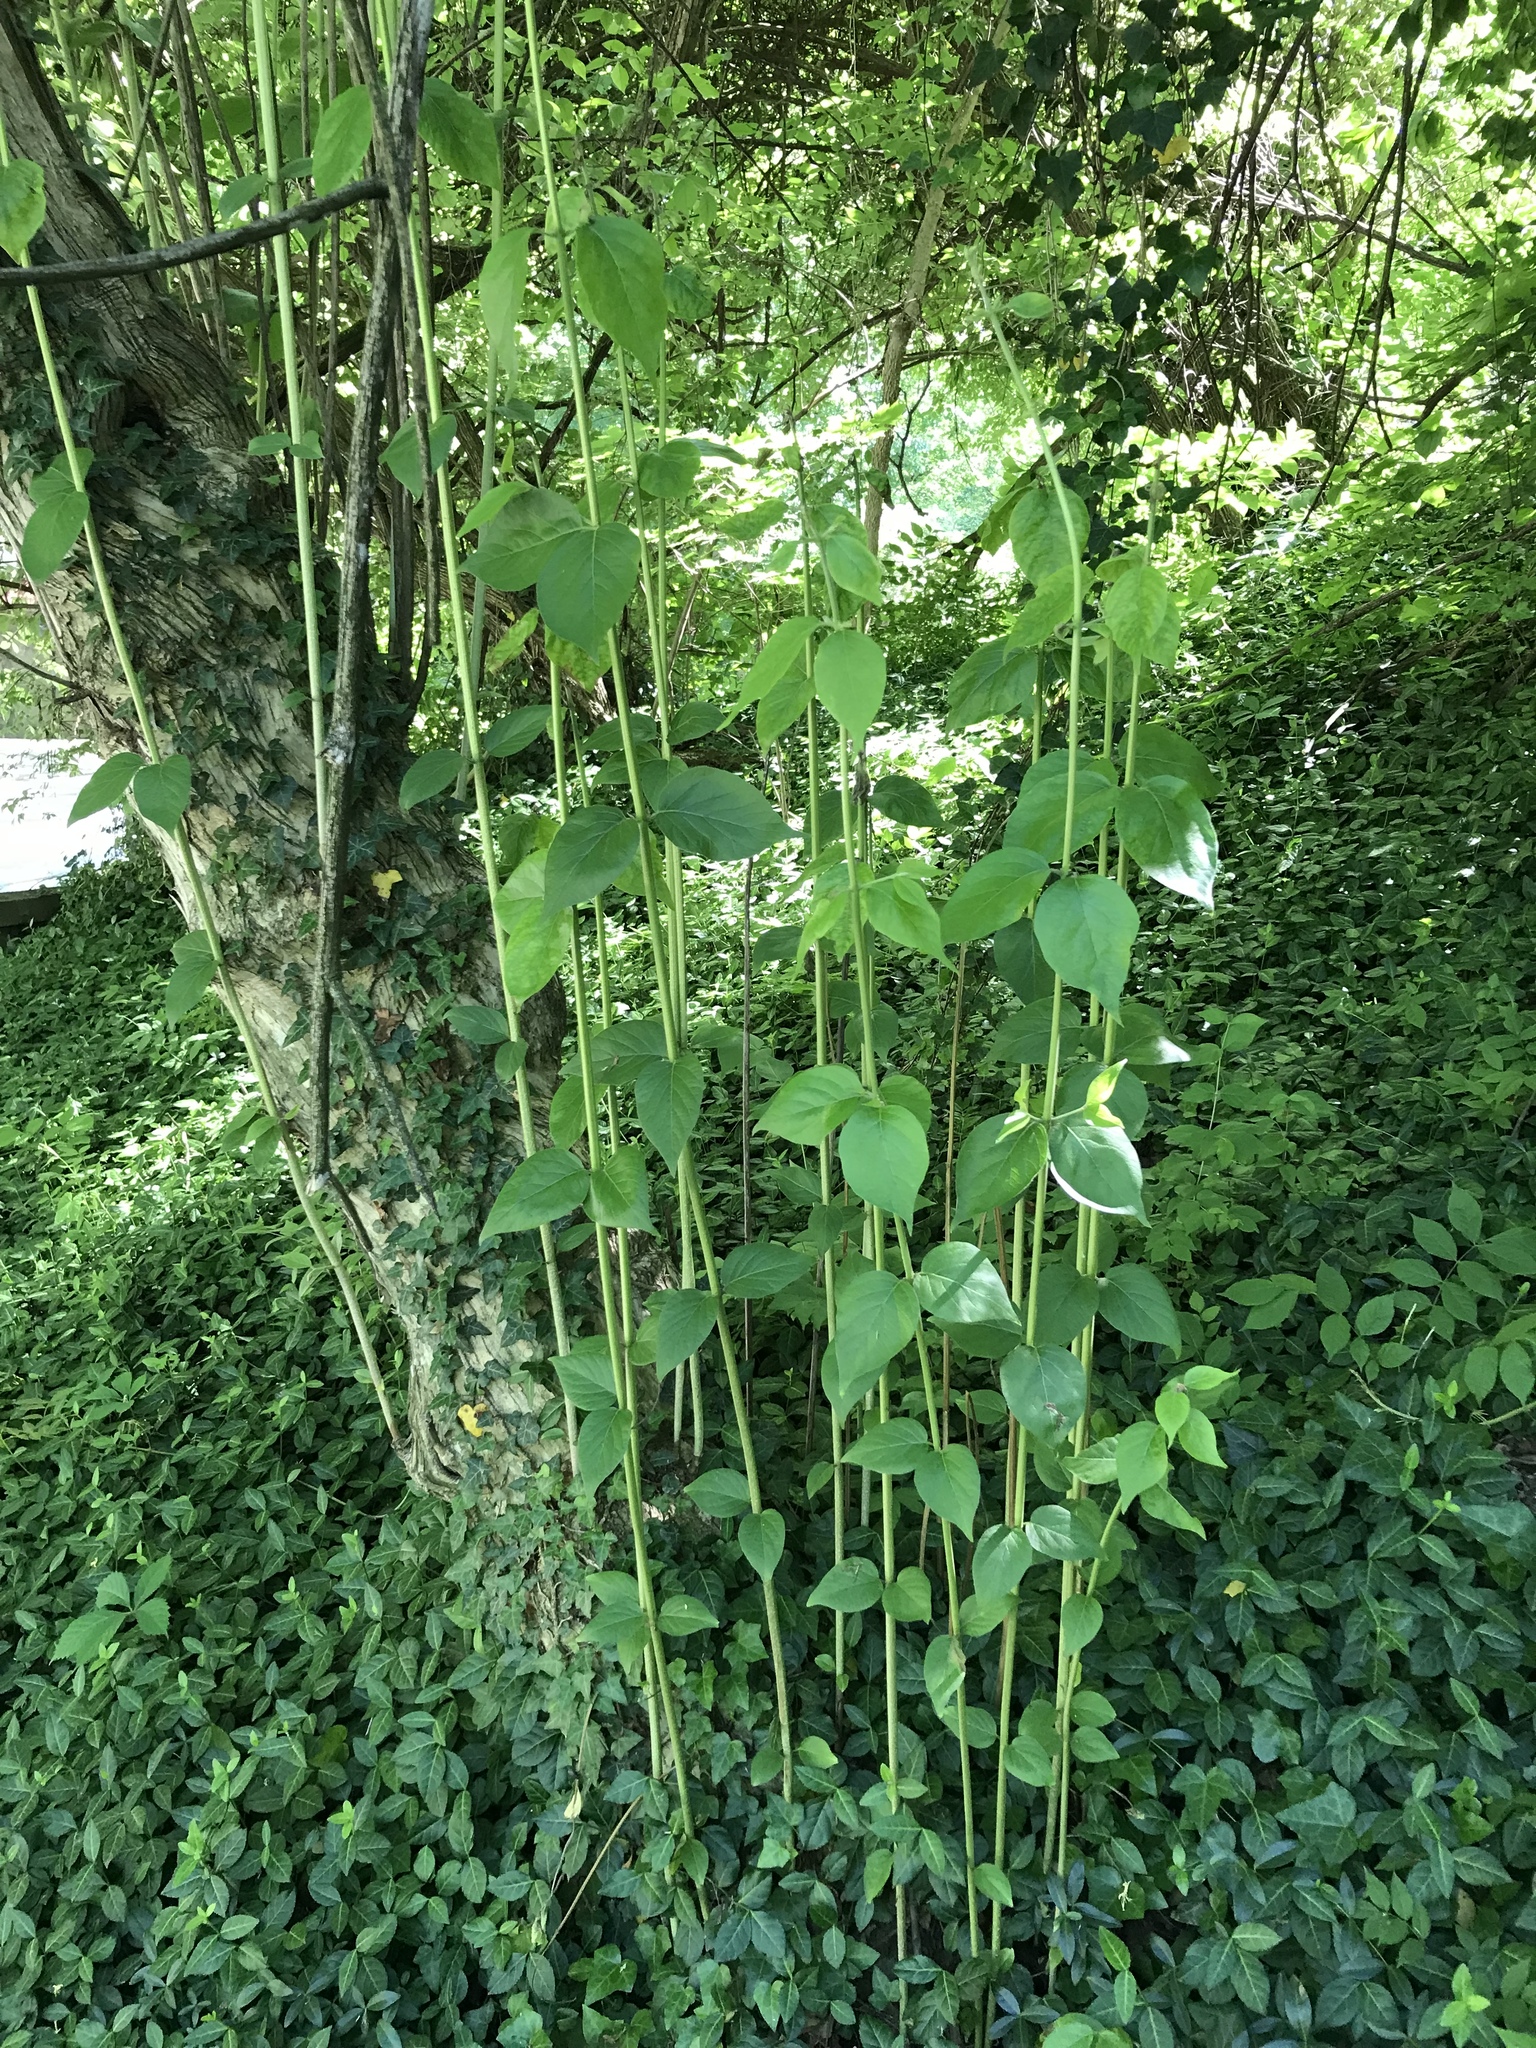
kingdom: Plantae
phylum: Tracheophyta
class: Magnoliopsida
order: Dipsacales
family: Caprifoliaceae
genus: Lonicera
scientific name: Lonicera maackii
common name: Amur honeysuckle
